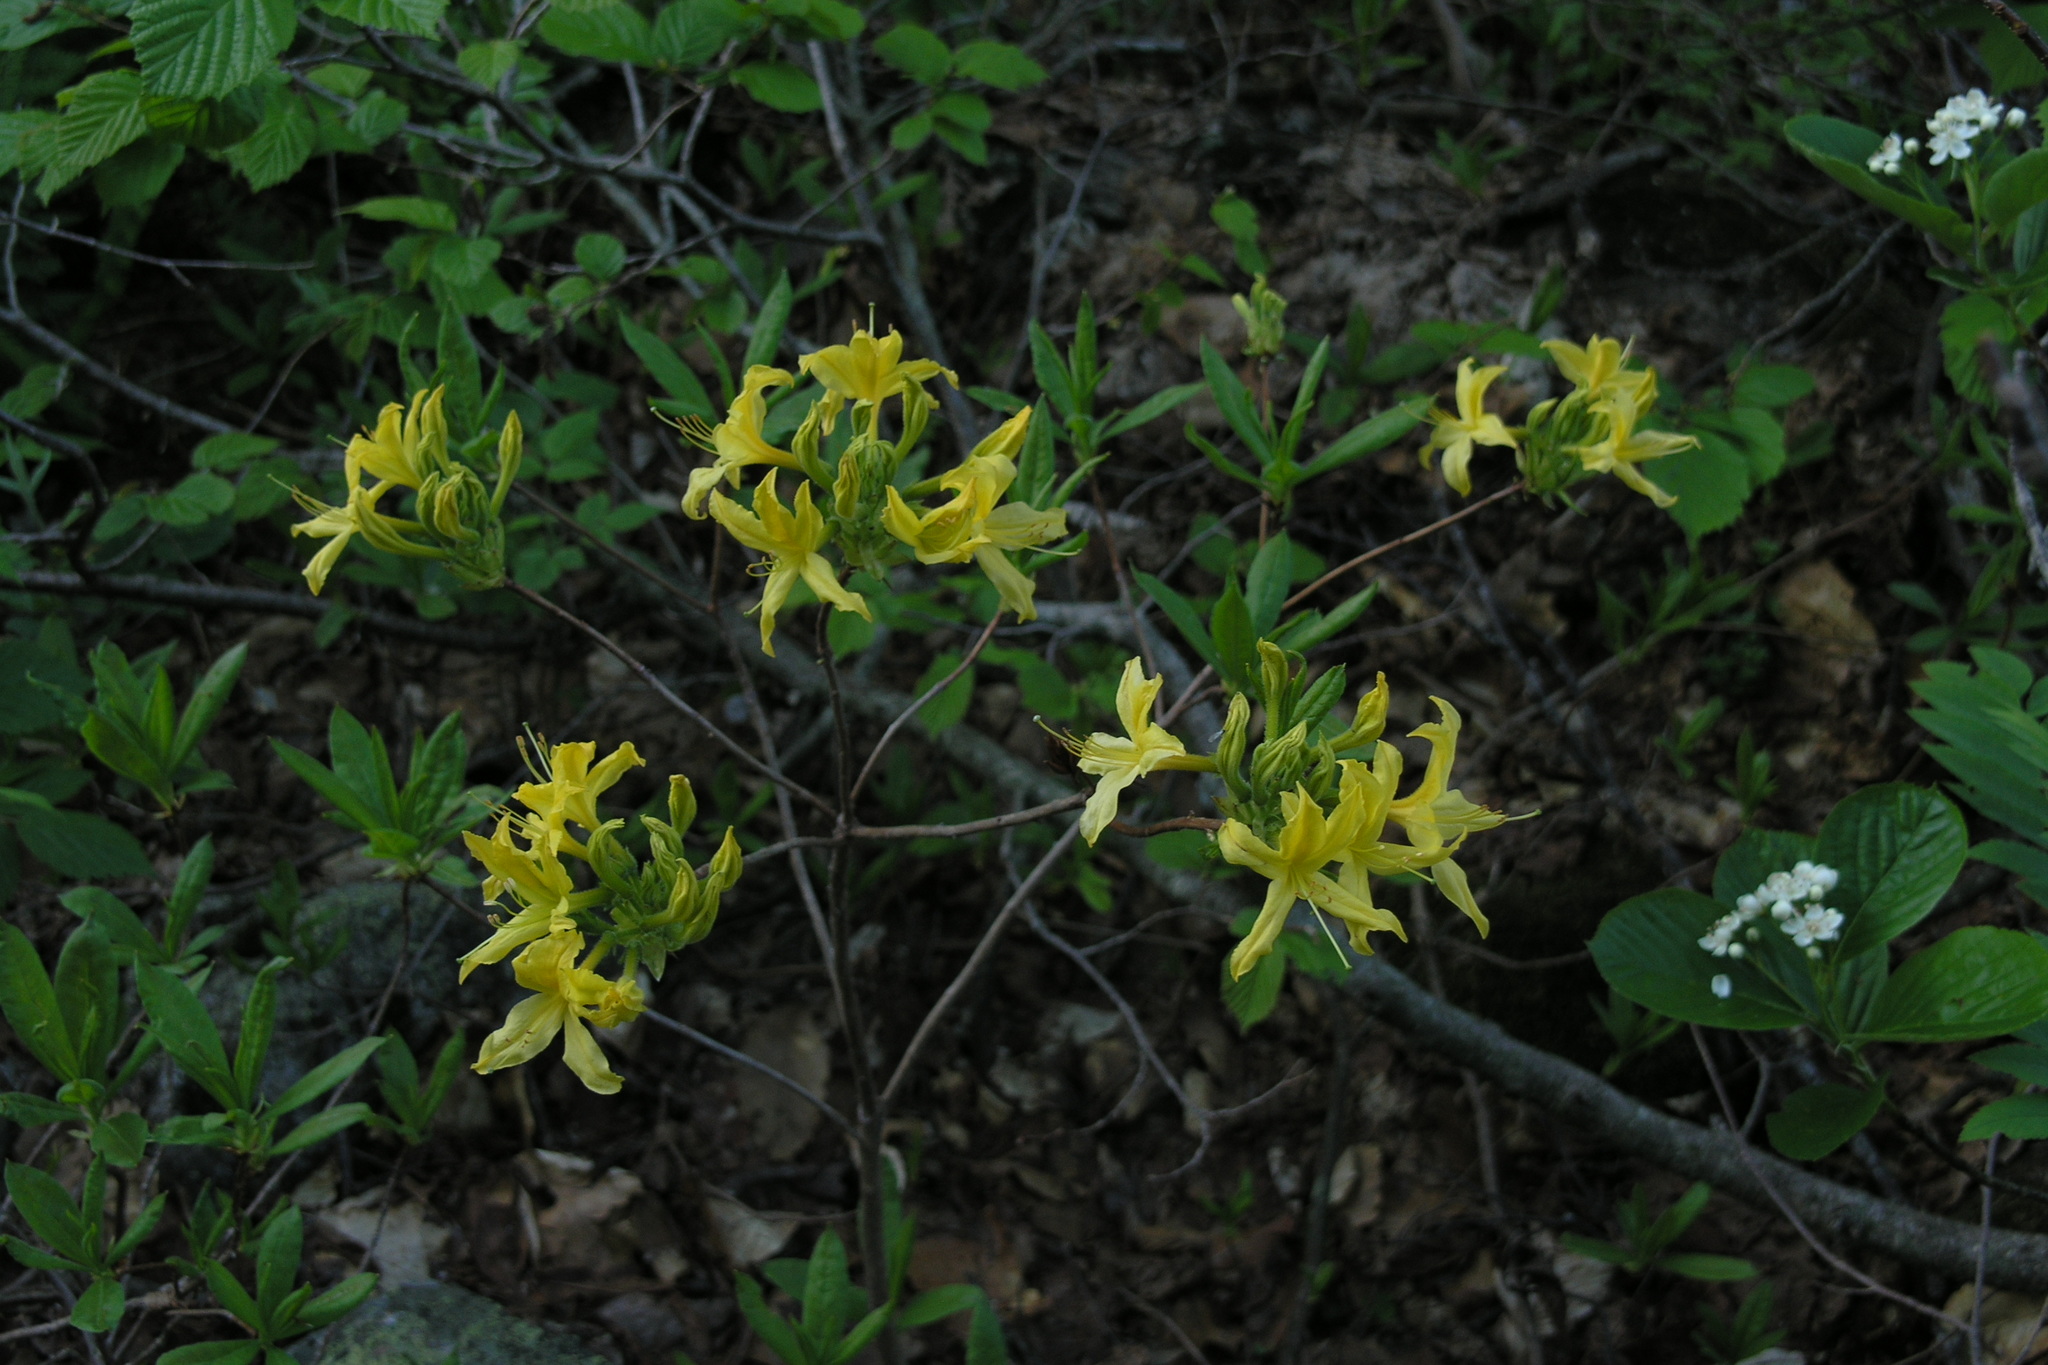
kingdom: Plantae
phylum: Tracheophyta
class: Magnoliopsida
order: Ericales
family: Ericaceae
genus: Rhododendron
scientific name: Rhododendron luteum
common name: Yellow azalea
